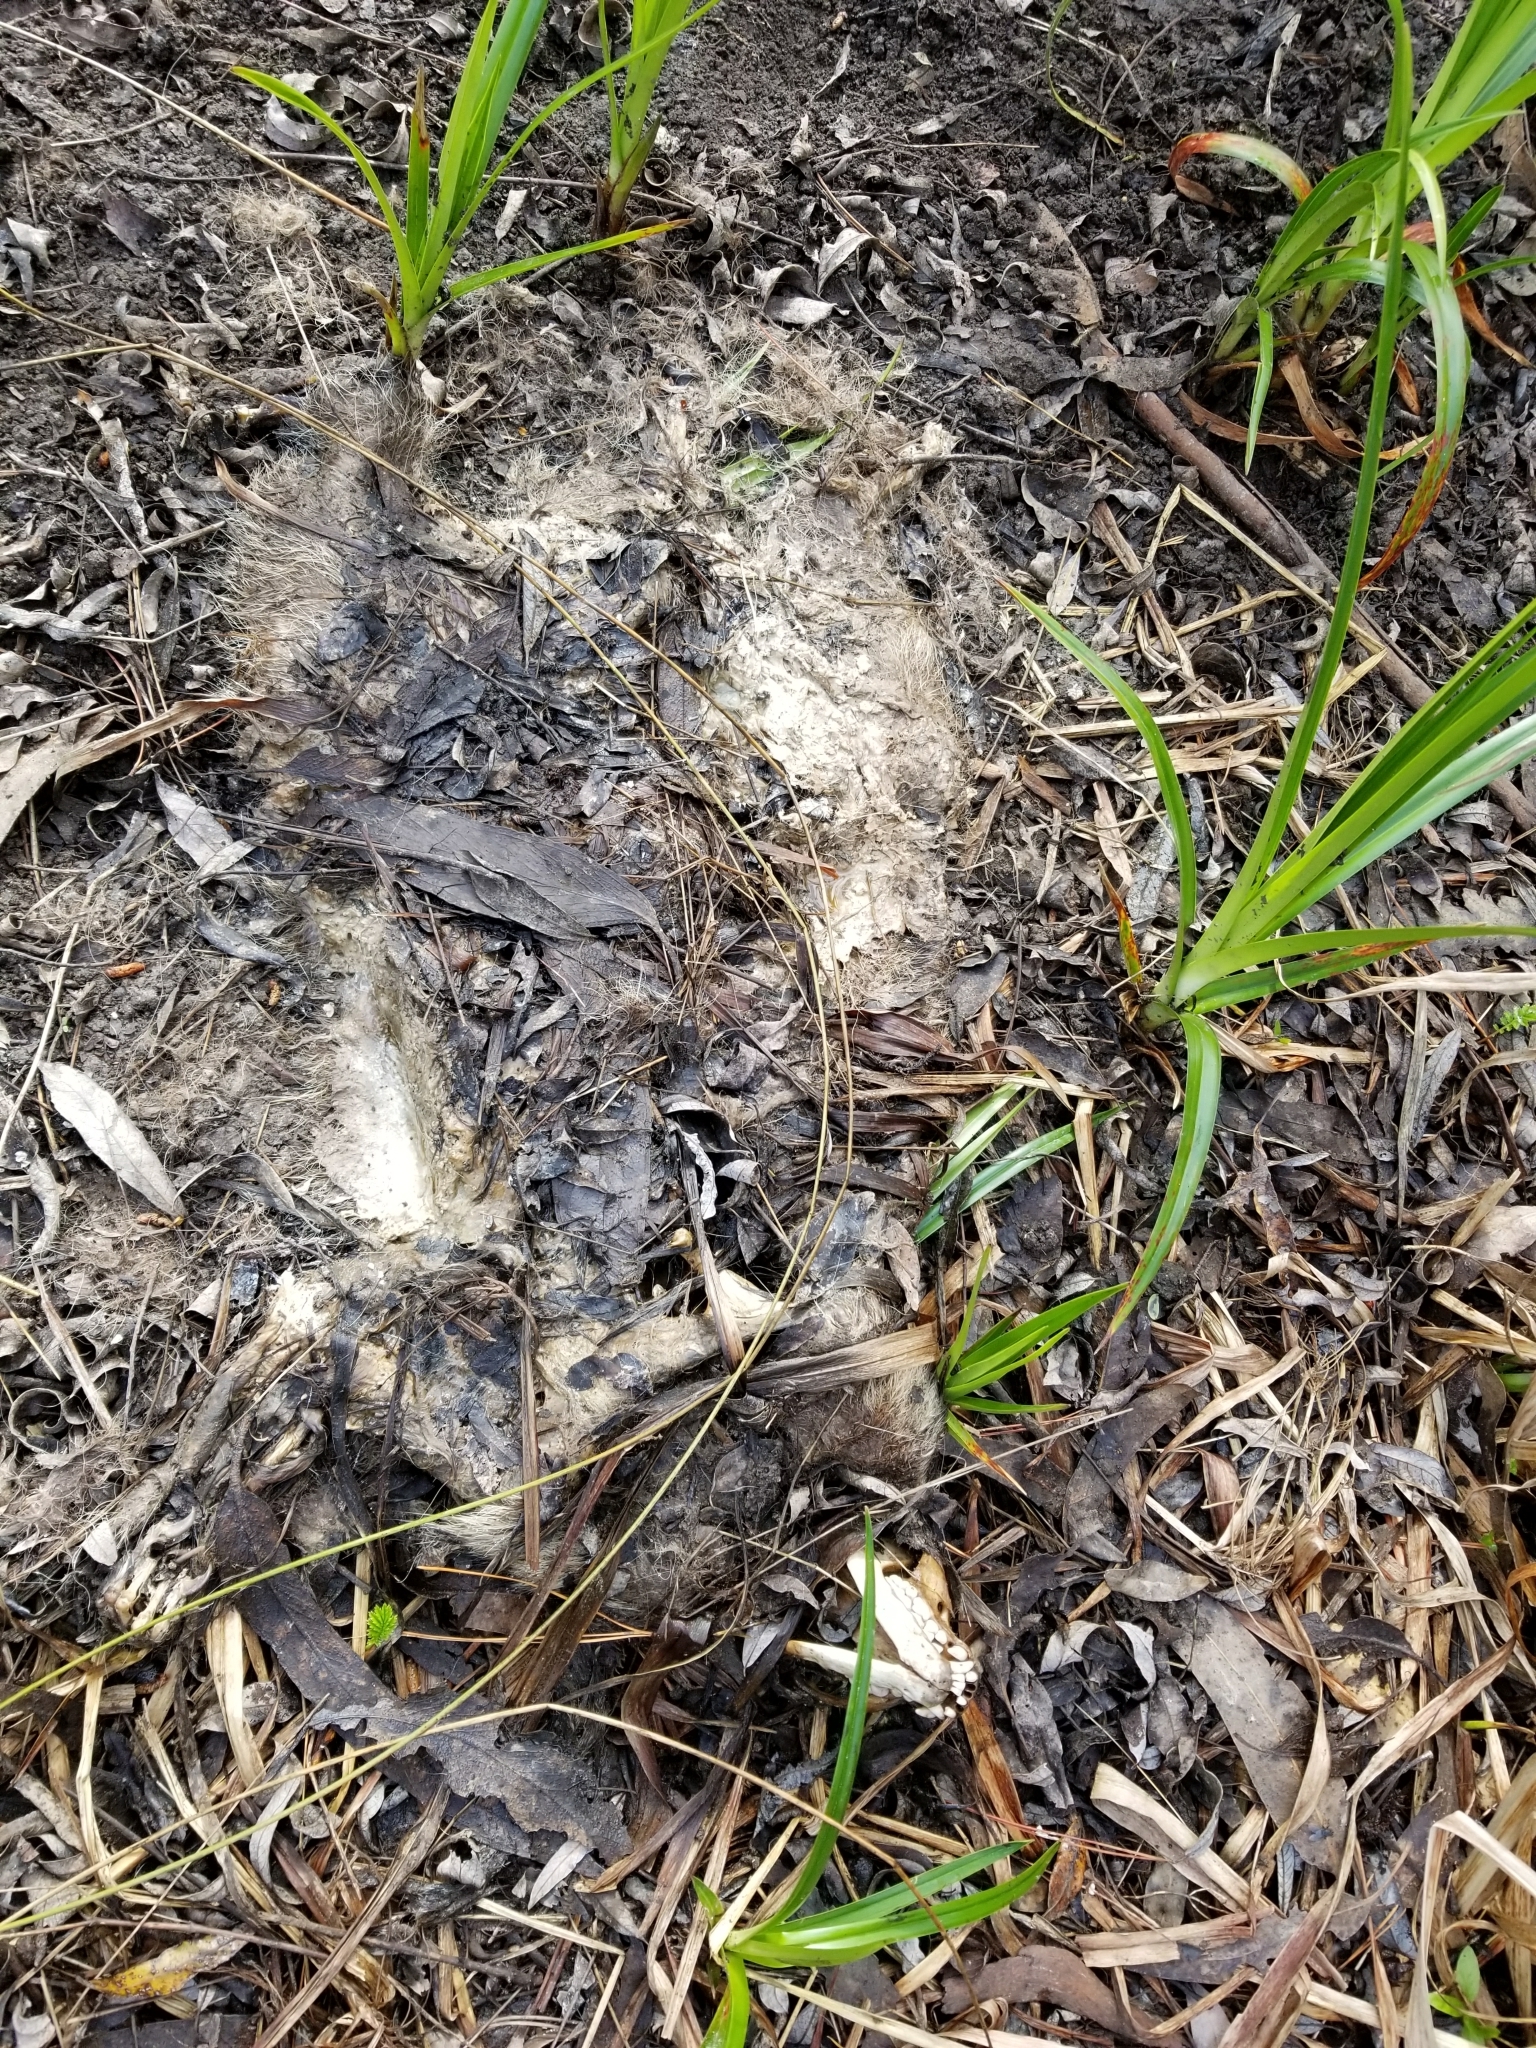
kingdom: Animalia
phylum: Chordata
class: Mammalia
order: Carnivora
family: Procyonidae
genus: Procyon
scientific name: Procyon lotor
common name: Raccoon
